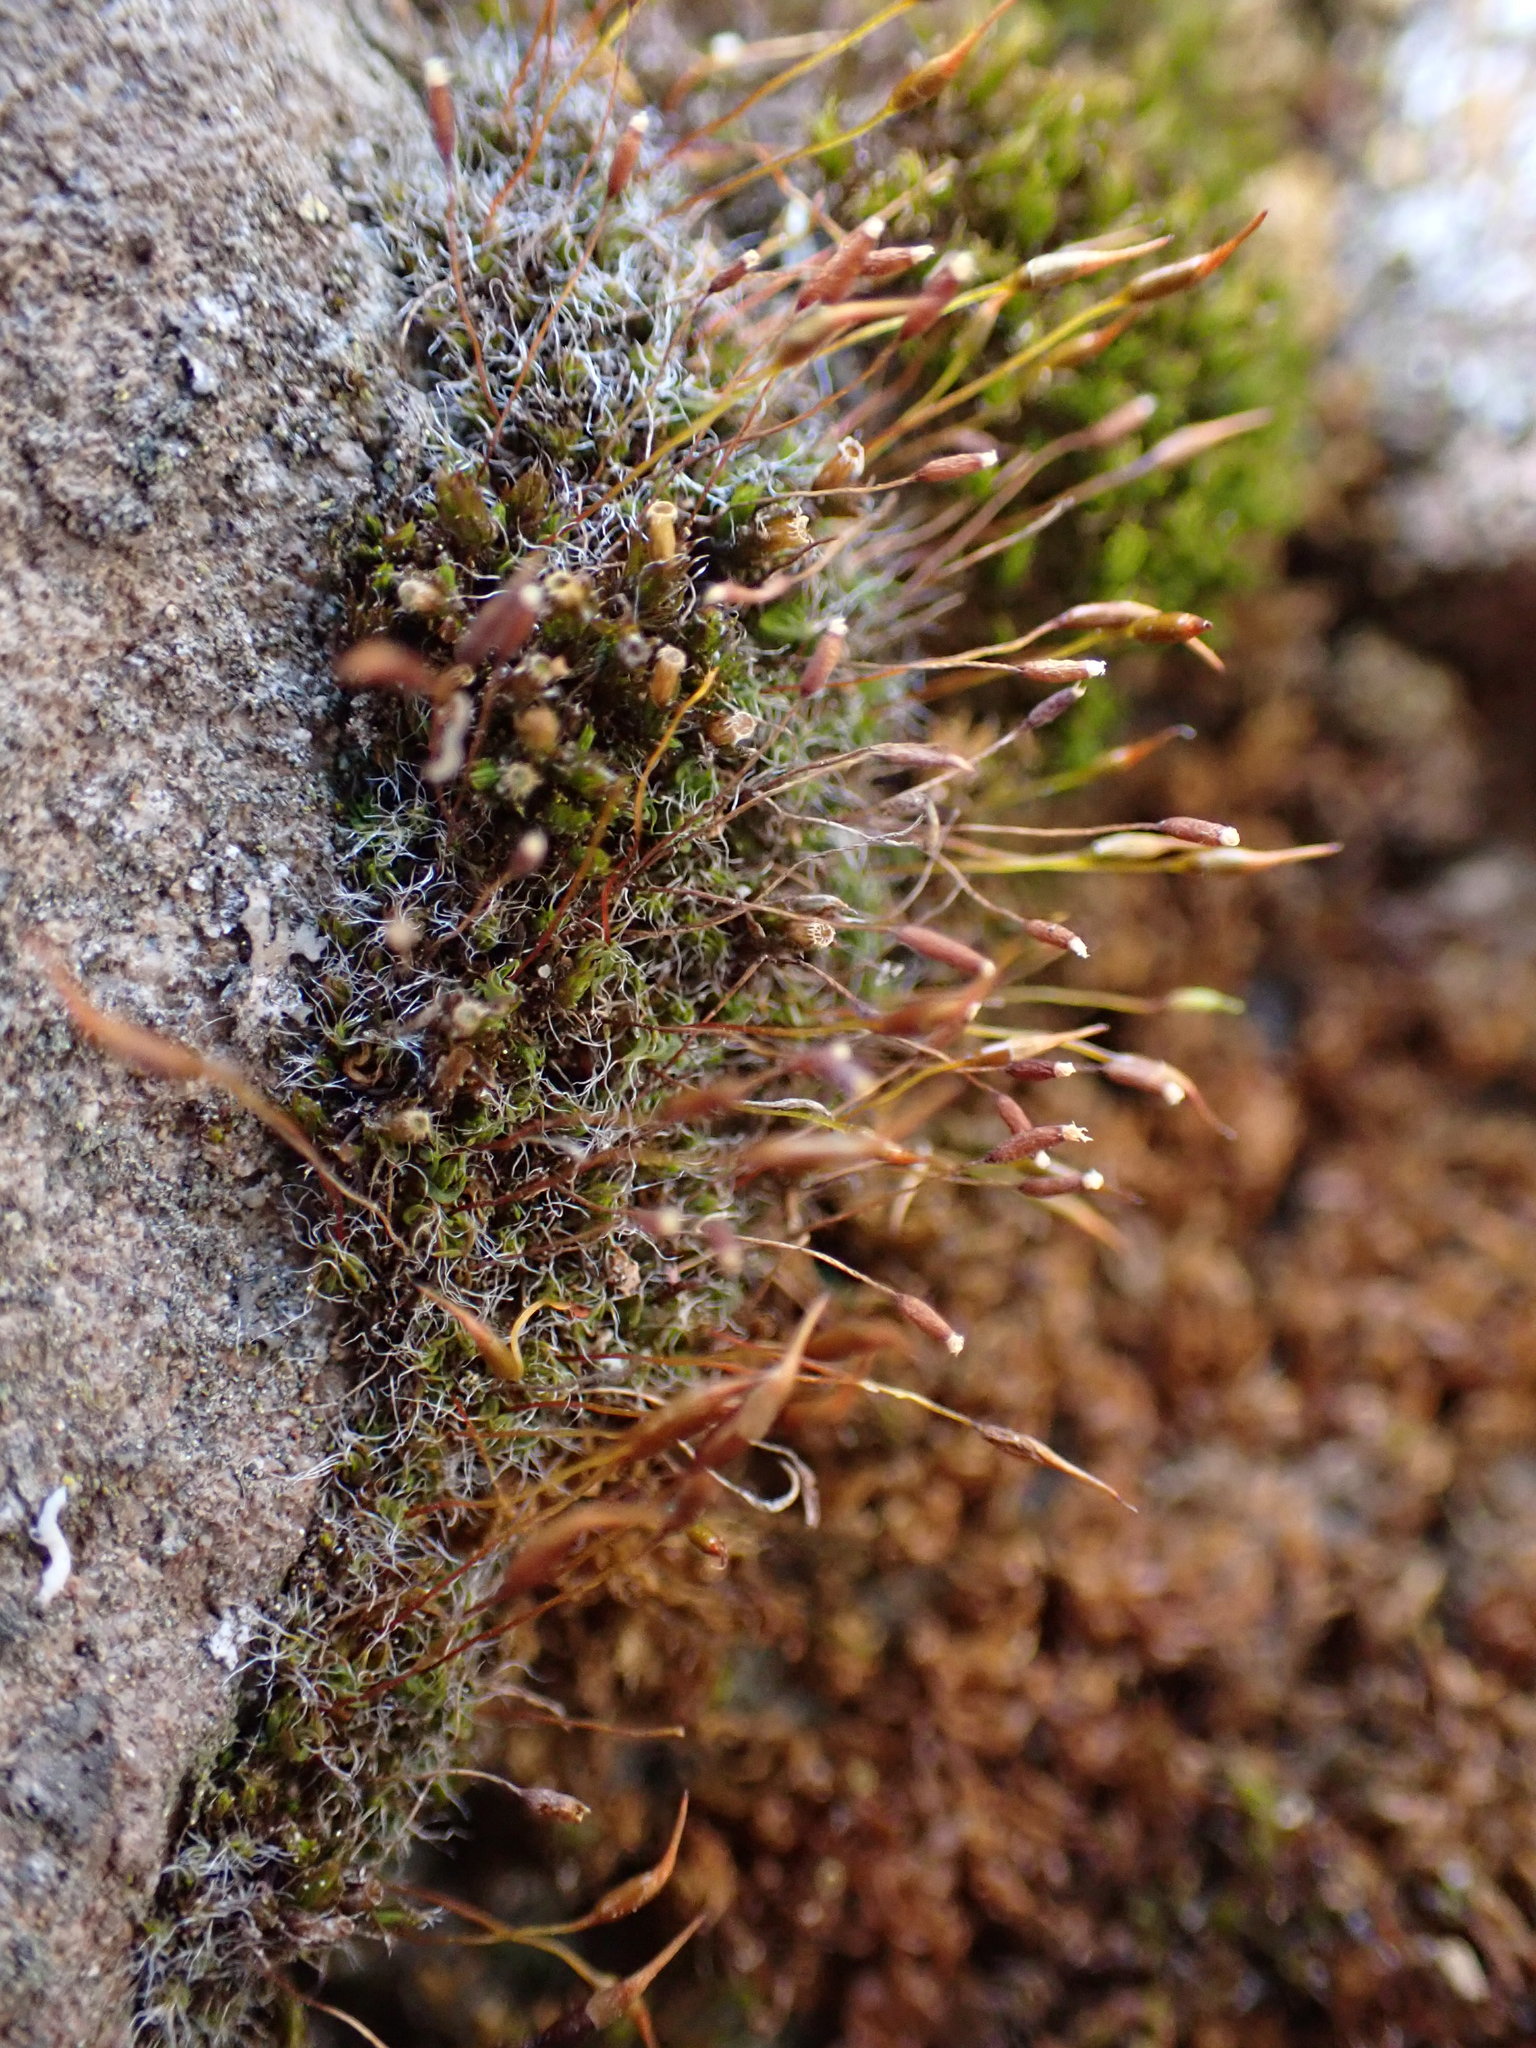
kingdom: Plantae
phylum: Bryophyta
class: Bryopsida
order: Pottiales
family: Pottiaceae
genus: Tortula
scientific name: Tortula muralis
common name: Wall screw-moss
